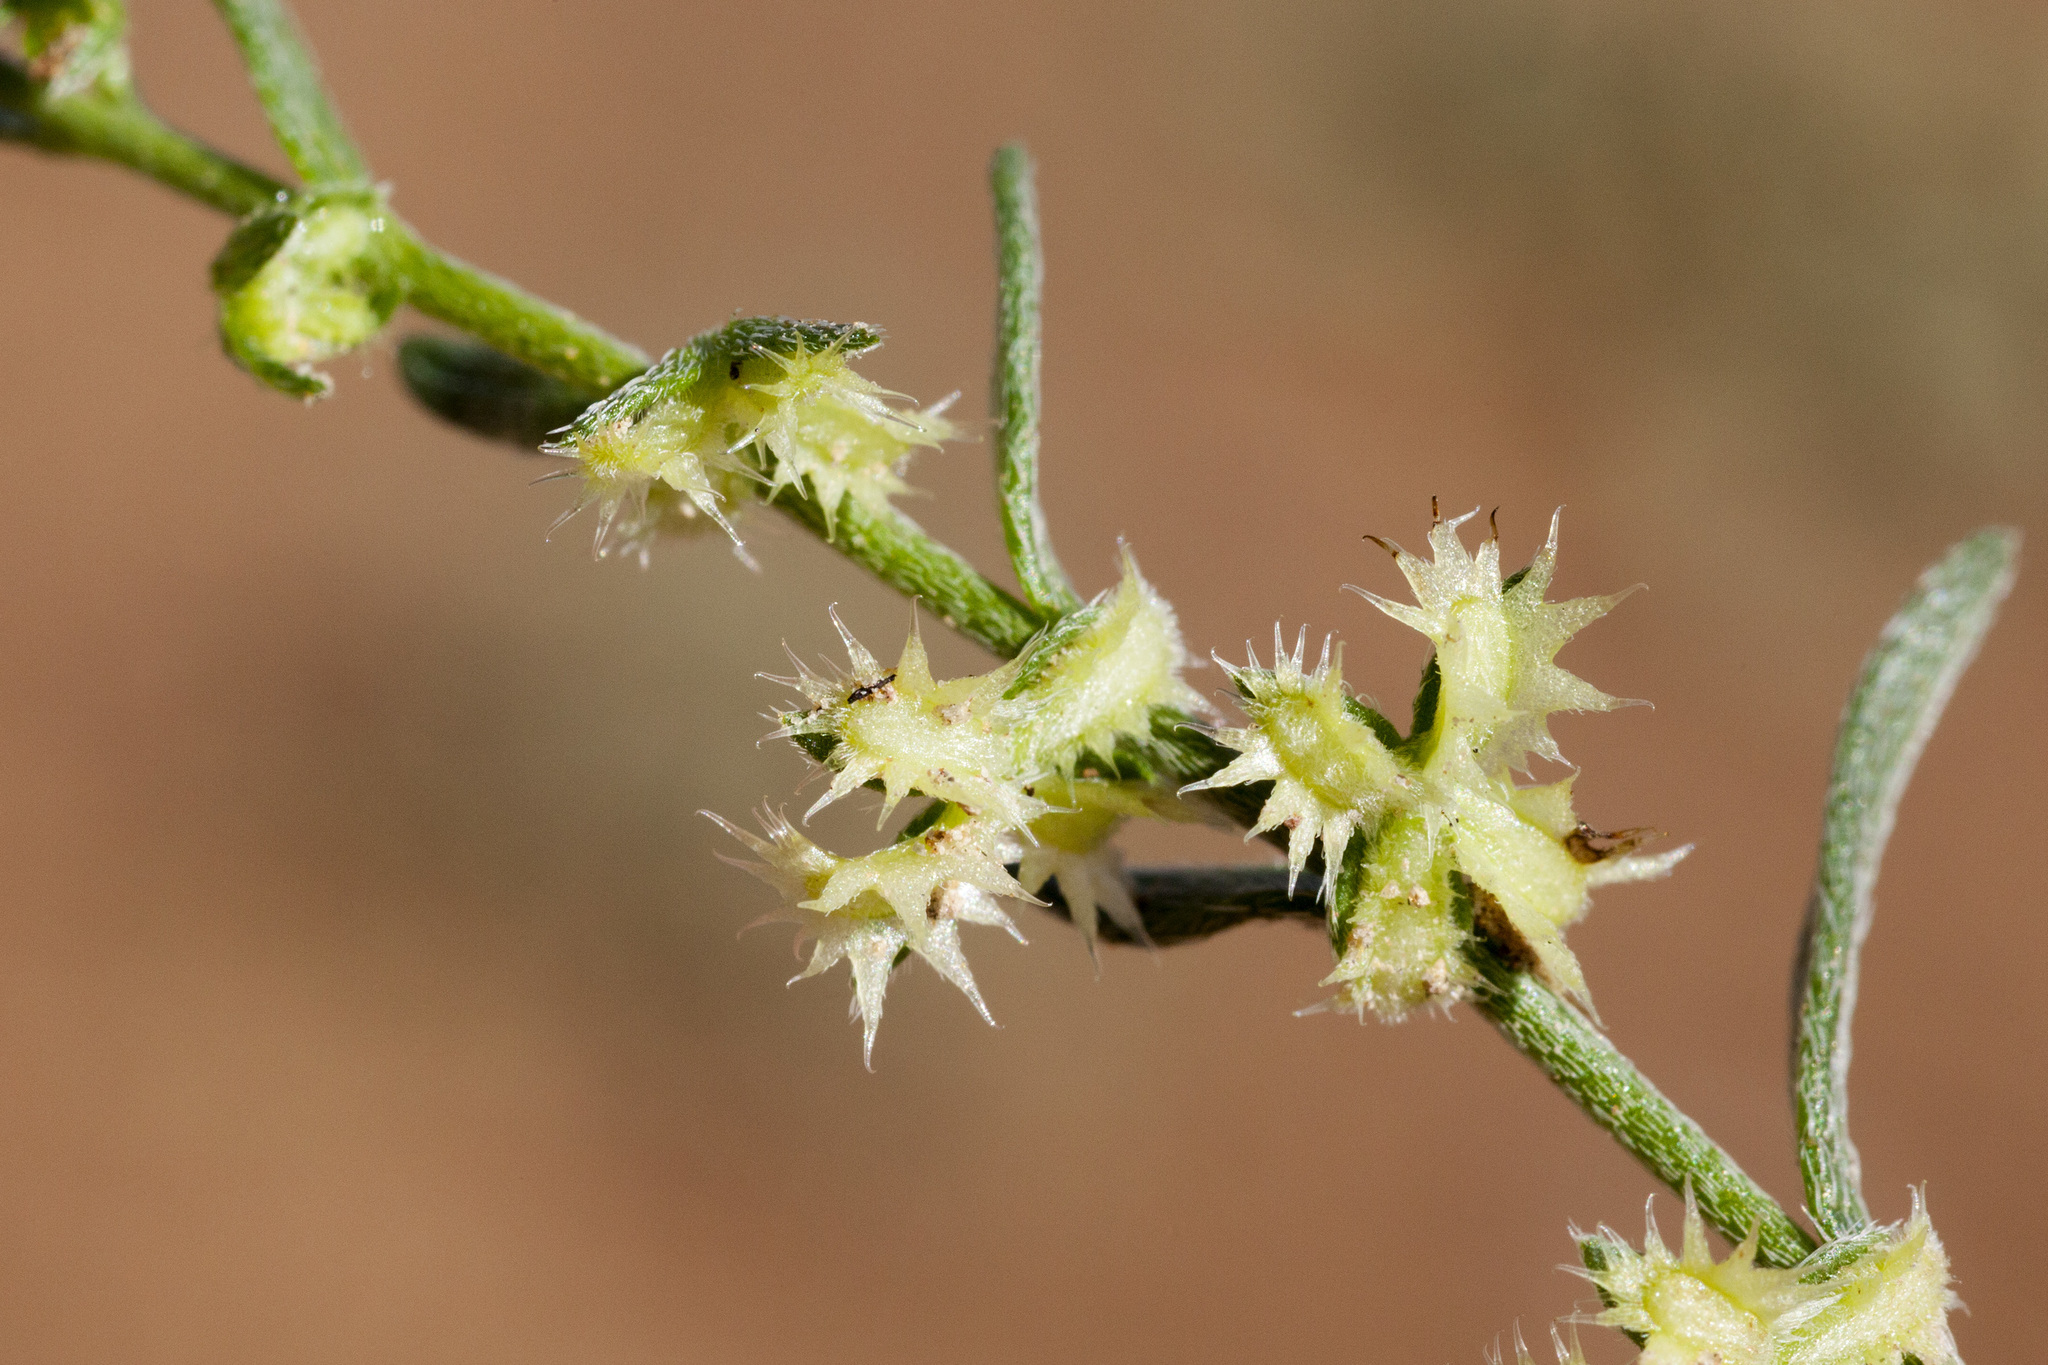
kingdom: Plantae
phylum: Tracheophyta
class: Magnoliopsida
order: Boraginales
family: Boraginaceae
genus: Pectocarya
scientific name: Pectocarya platycarpa
